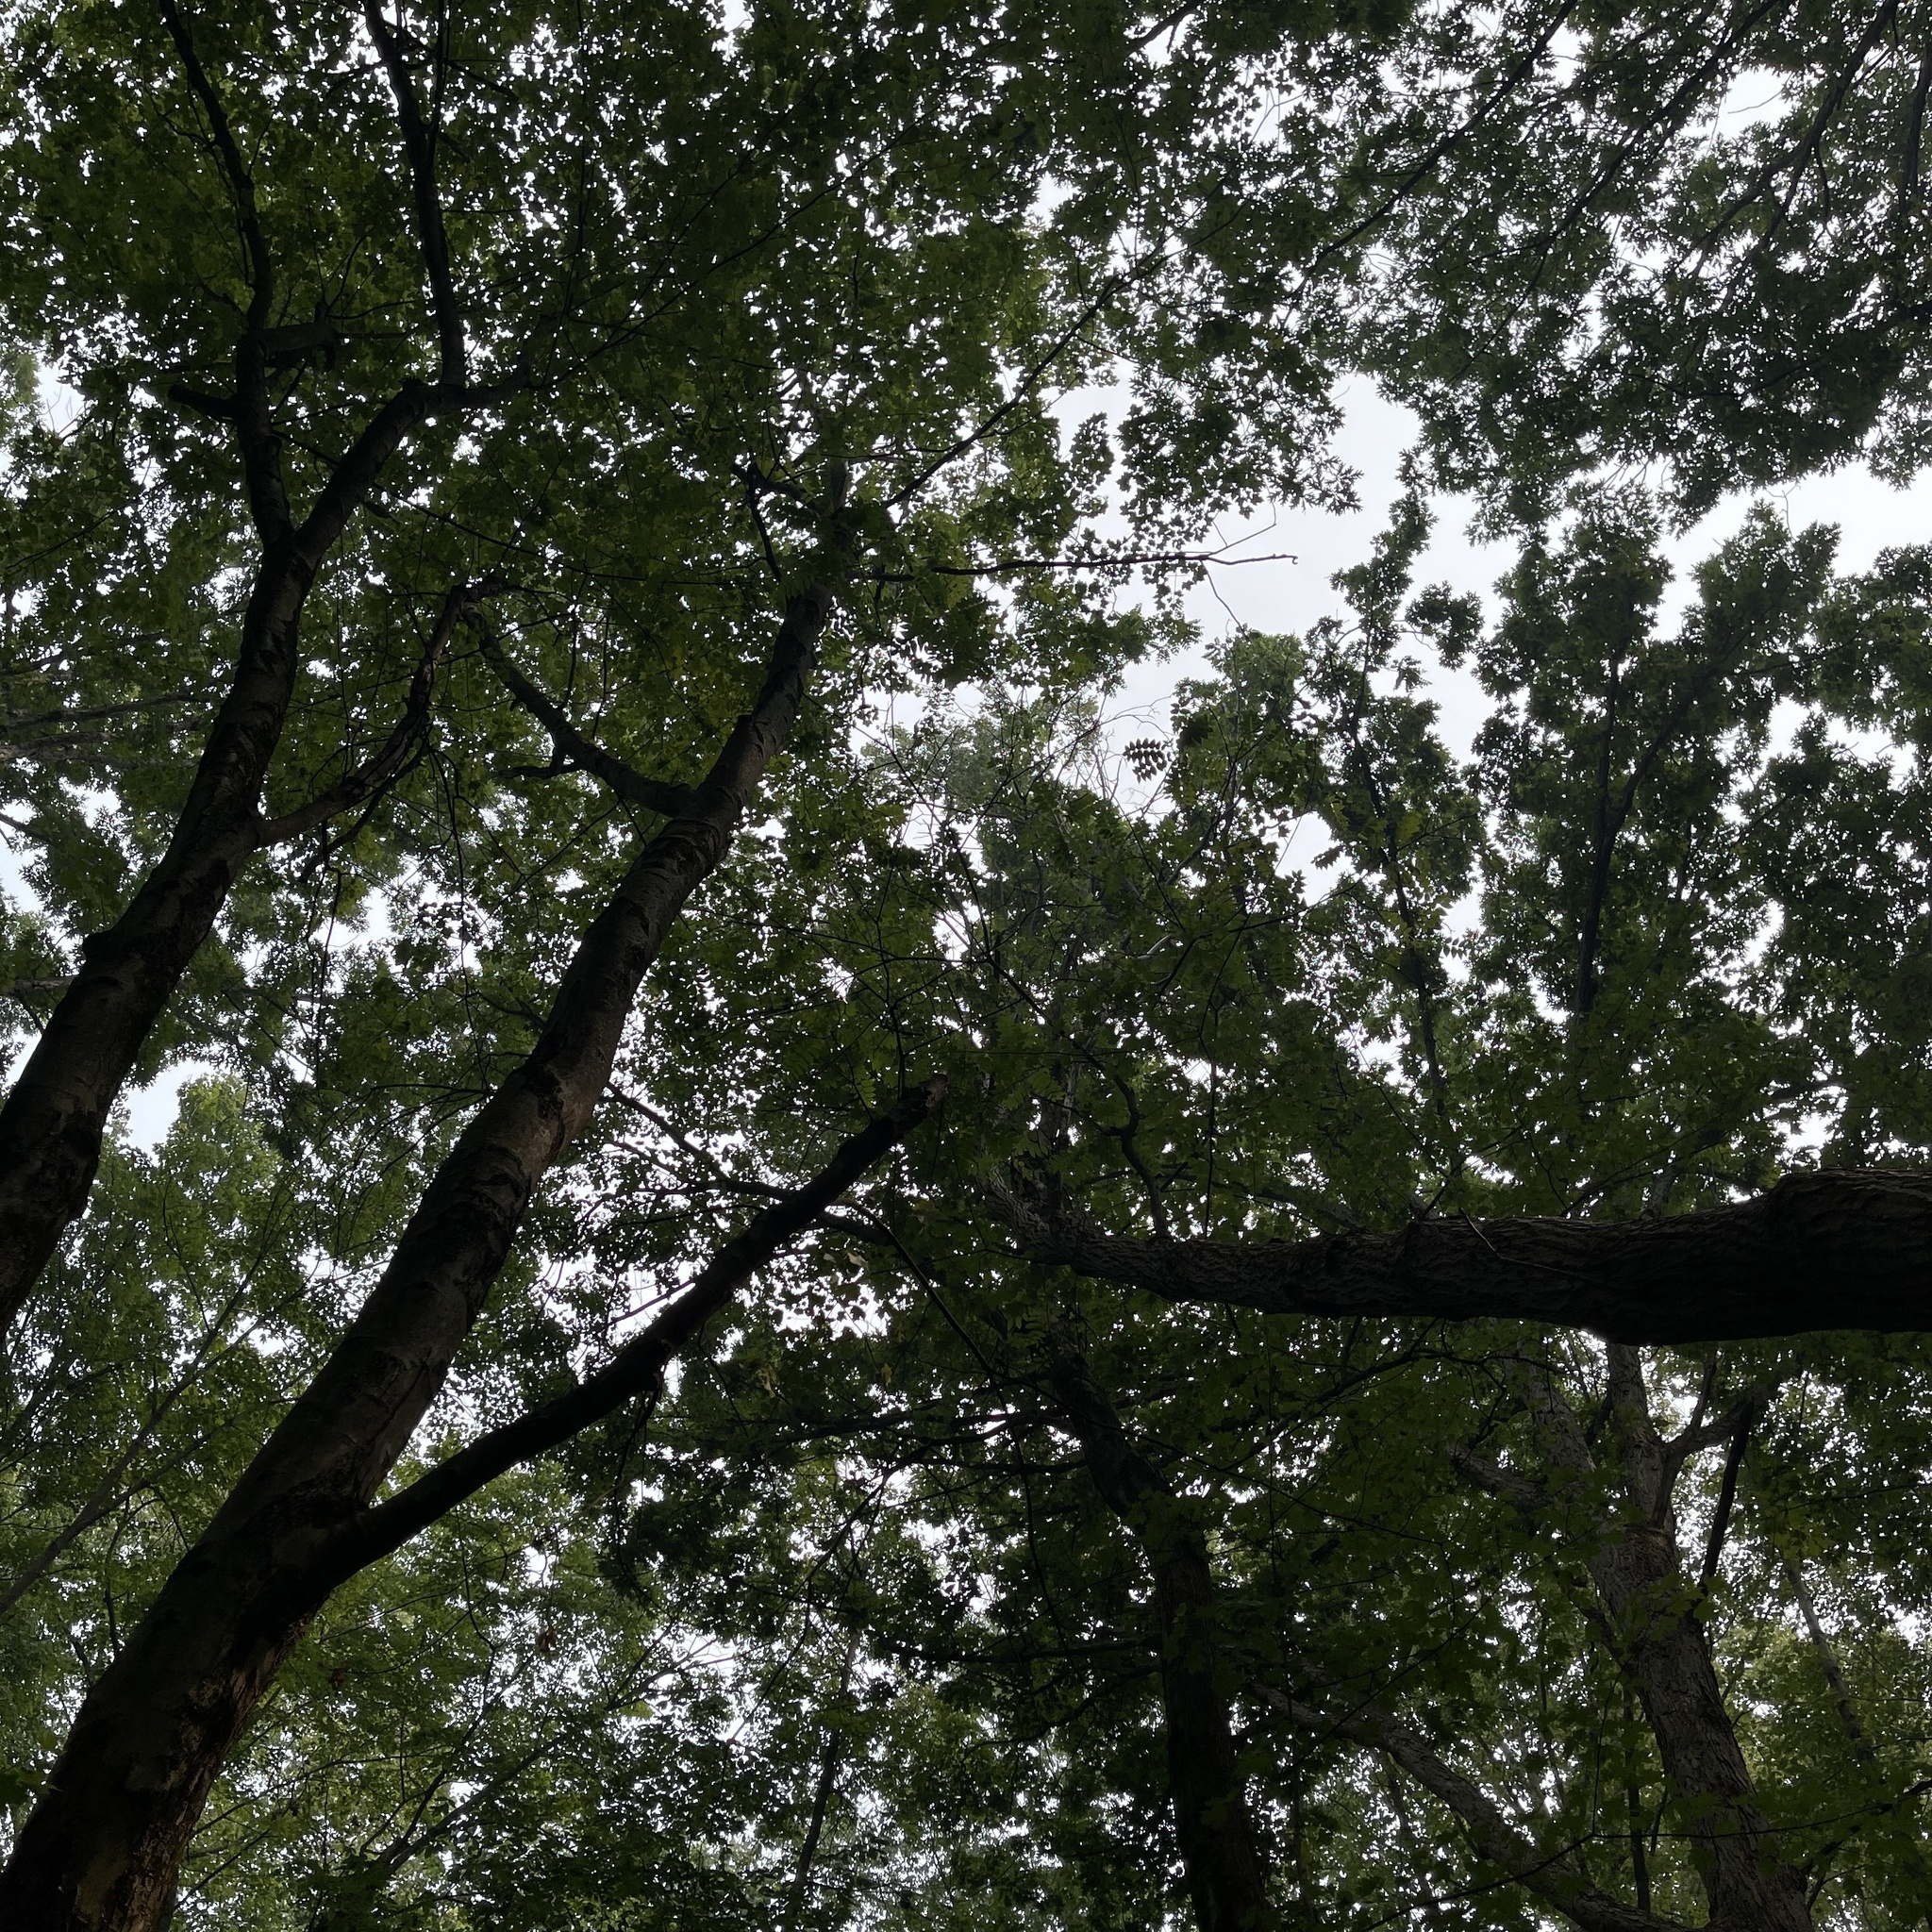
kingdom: Plantae
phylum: Tracheophyta
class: Magnoliopsida
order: Fagales
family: Juglandaceae
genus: Juglans
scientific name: Juglans cinerea
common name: Butternut
